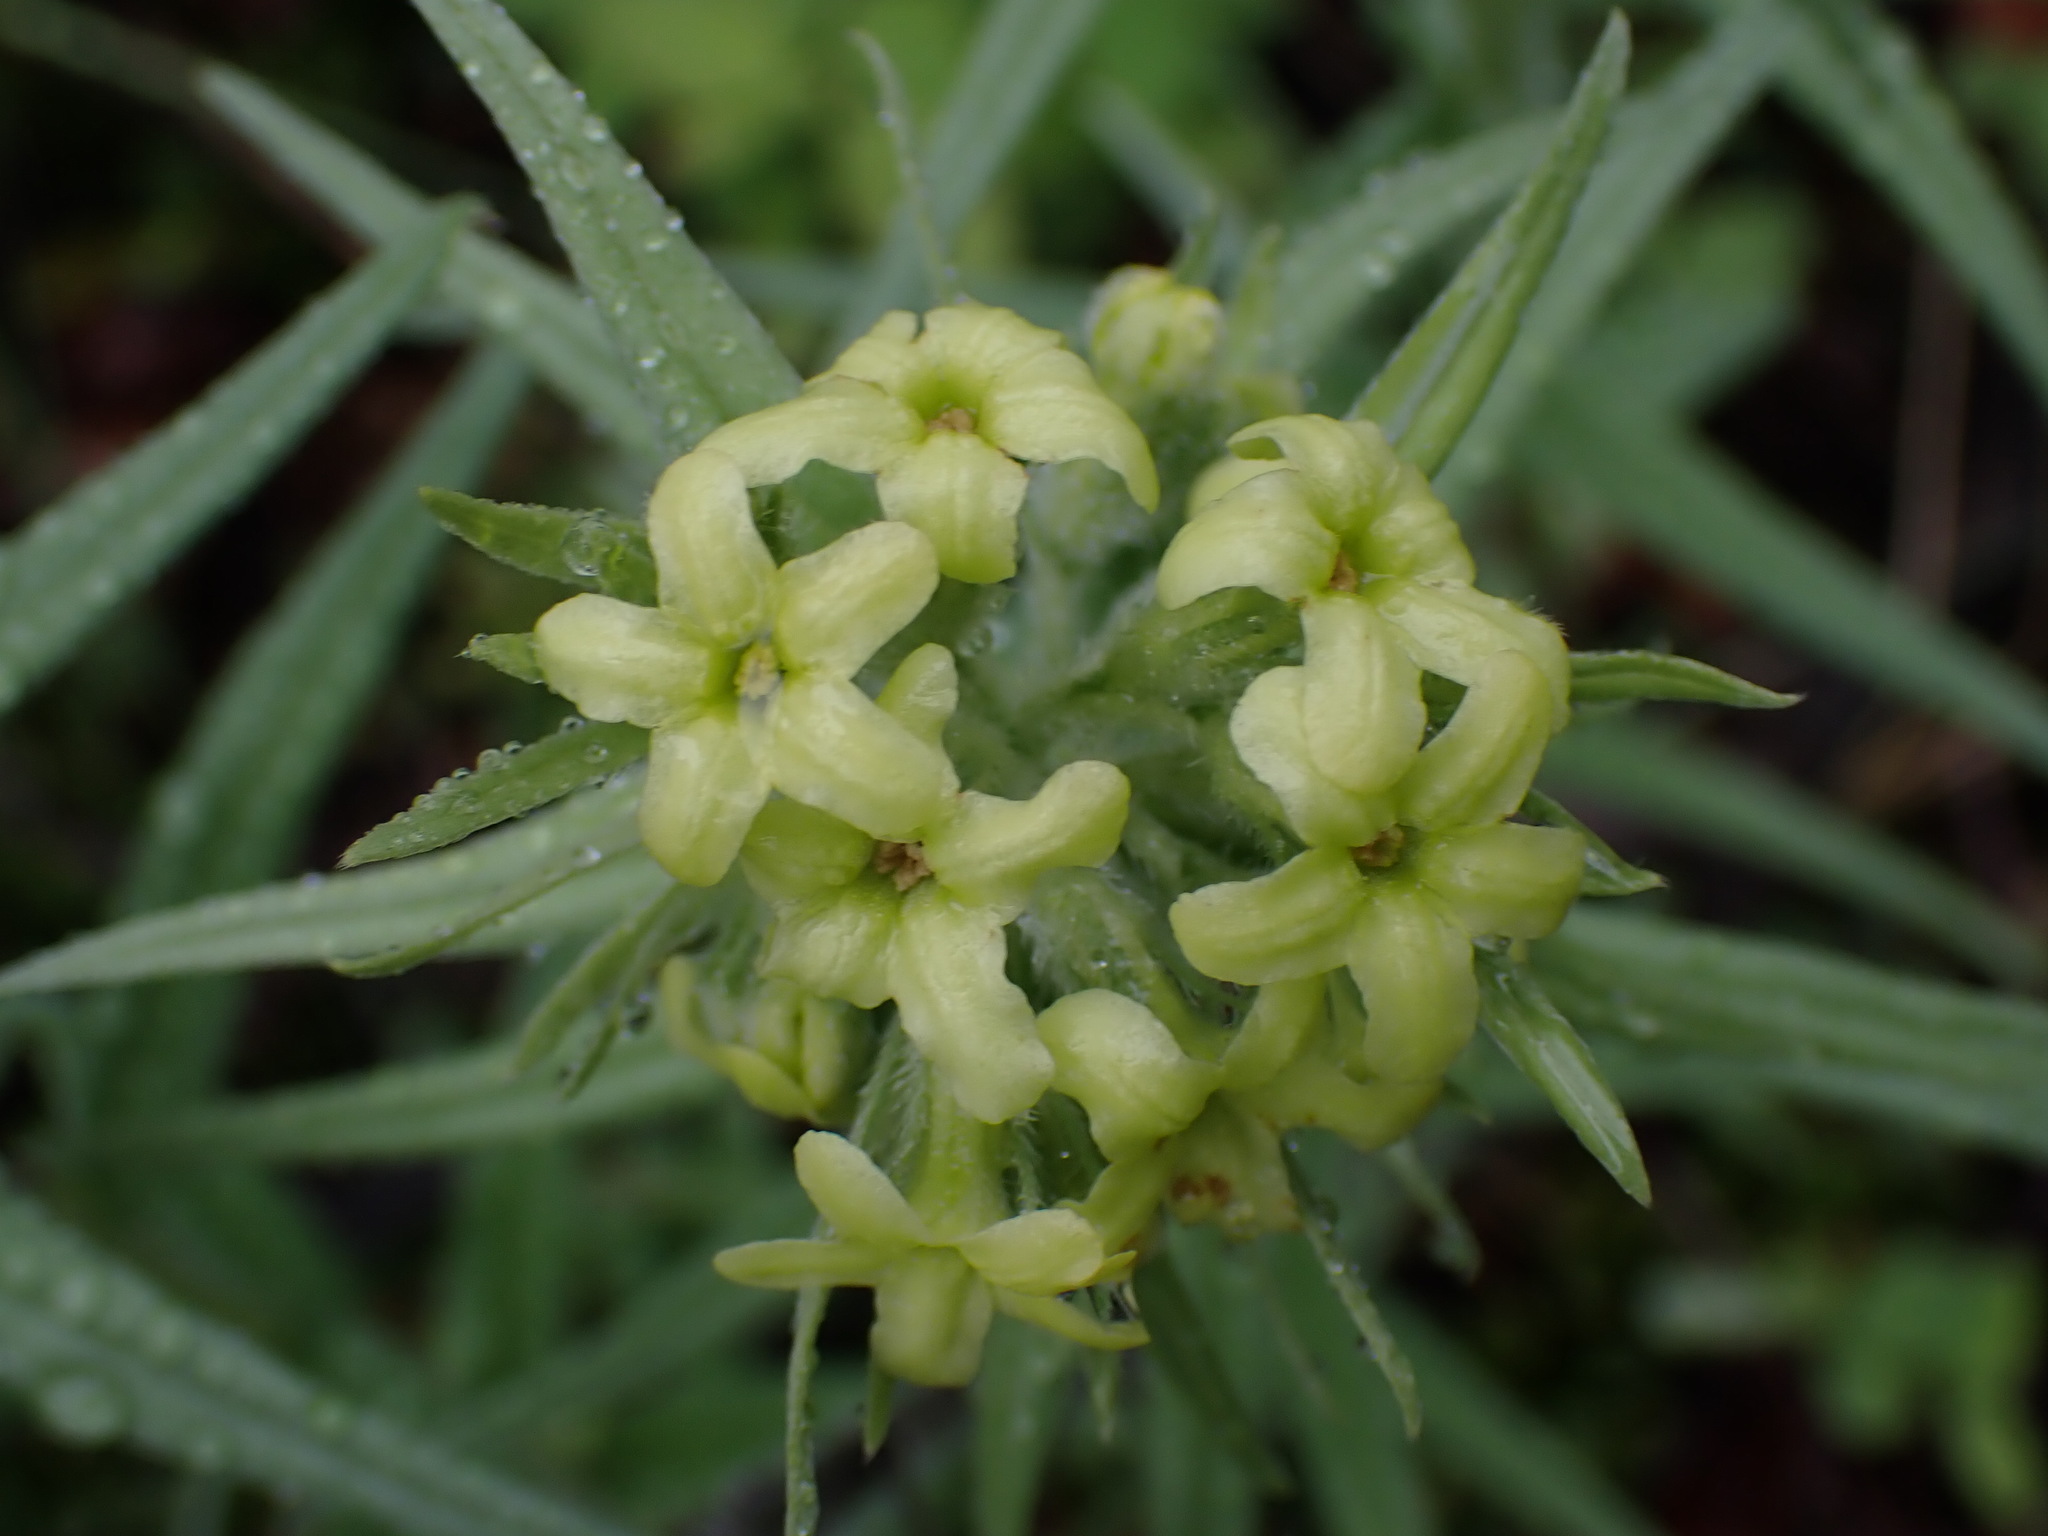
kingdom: Plantae
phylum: Tracheophyta
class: Magnoliopsida
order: Boraginales
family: Boraginaceae
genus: Lithospermum
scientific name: Lithospermum ruderale
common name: Western gromwell
